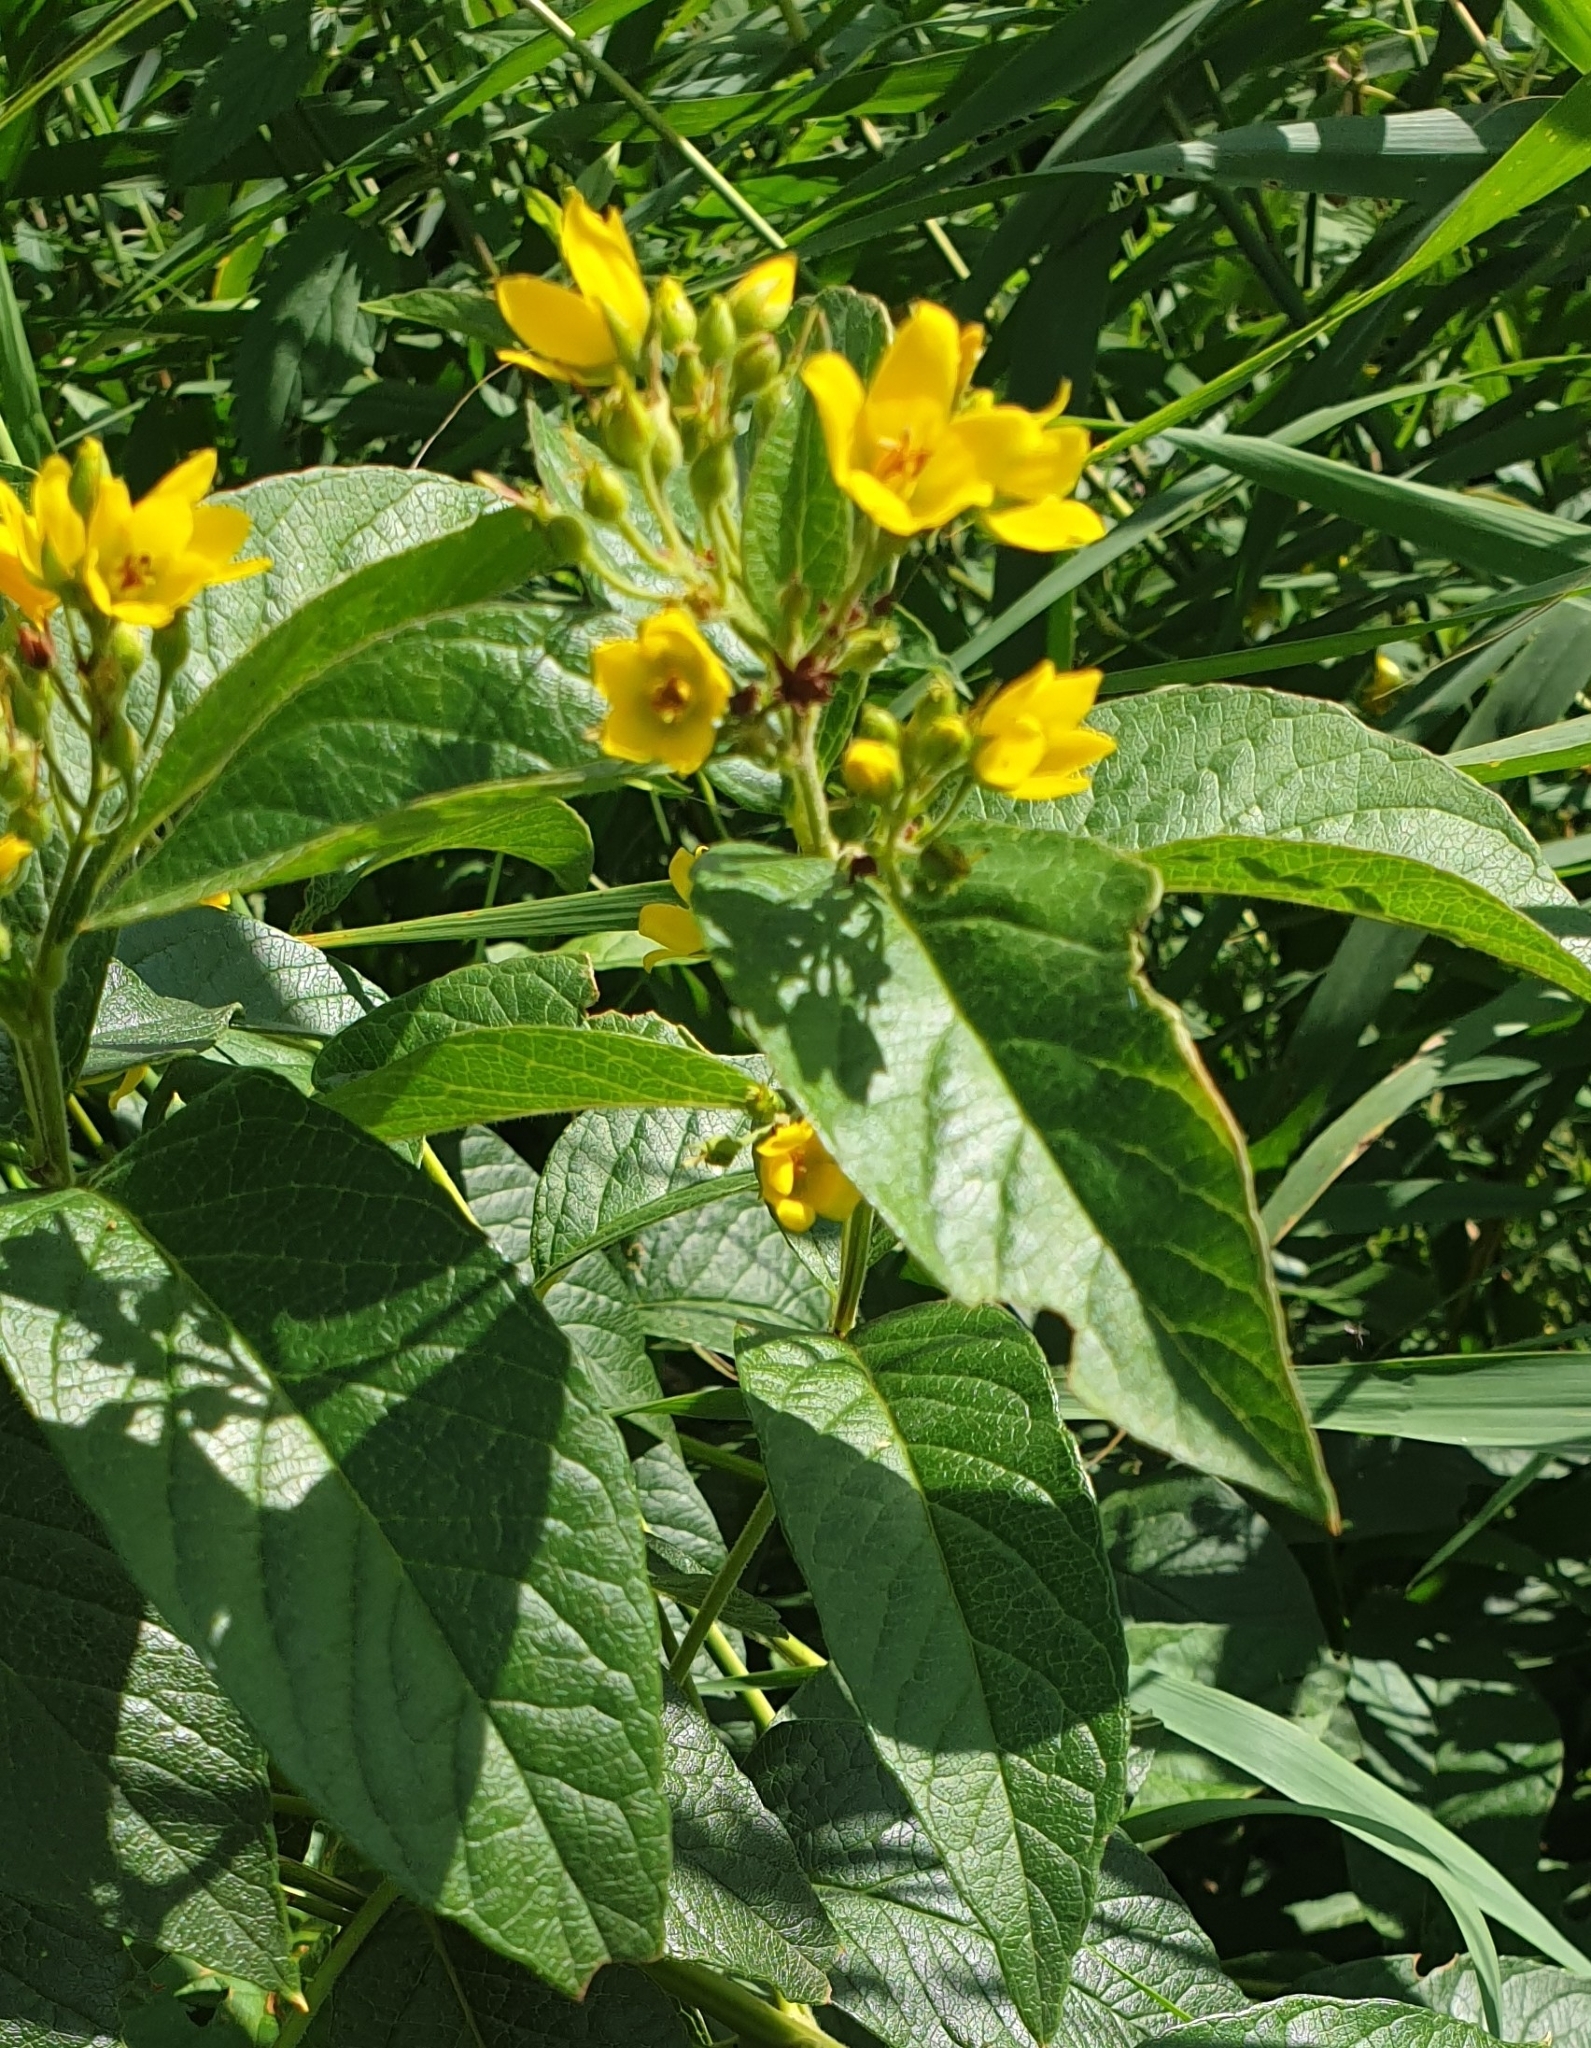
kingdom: Plantae
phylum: Tracheophyta
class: Magnoliopsida
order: Ericales
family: Primulaceae
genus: Lysimachia
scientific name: Lysimachia vulgaris
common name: Yellow loosestrife
